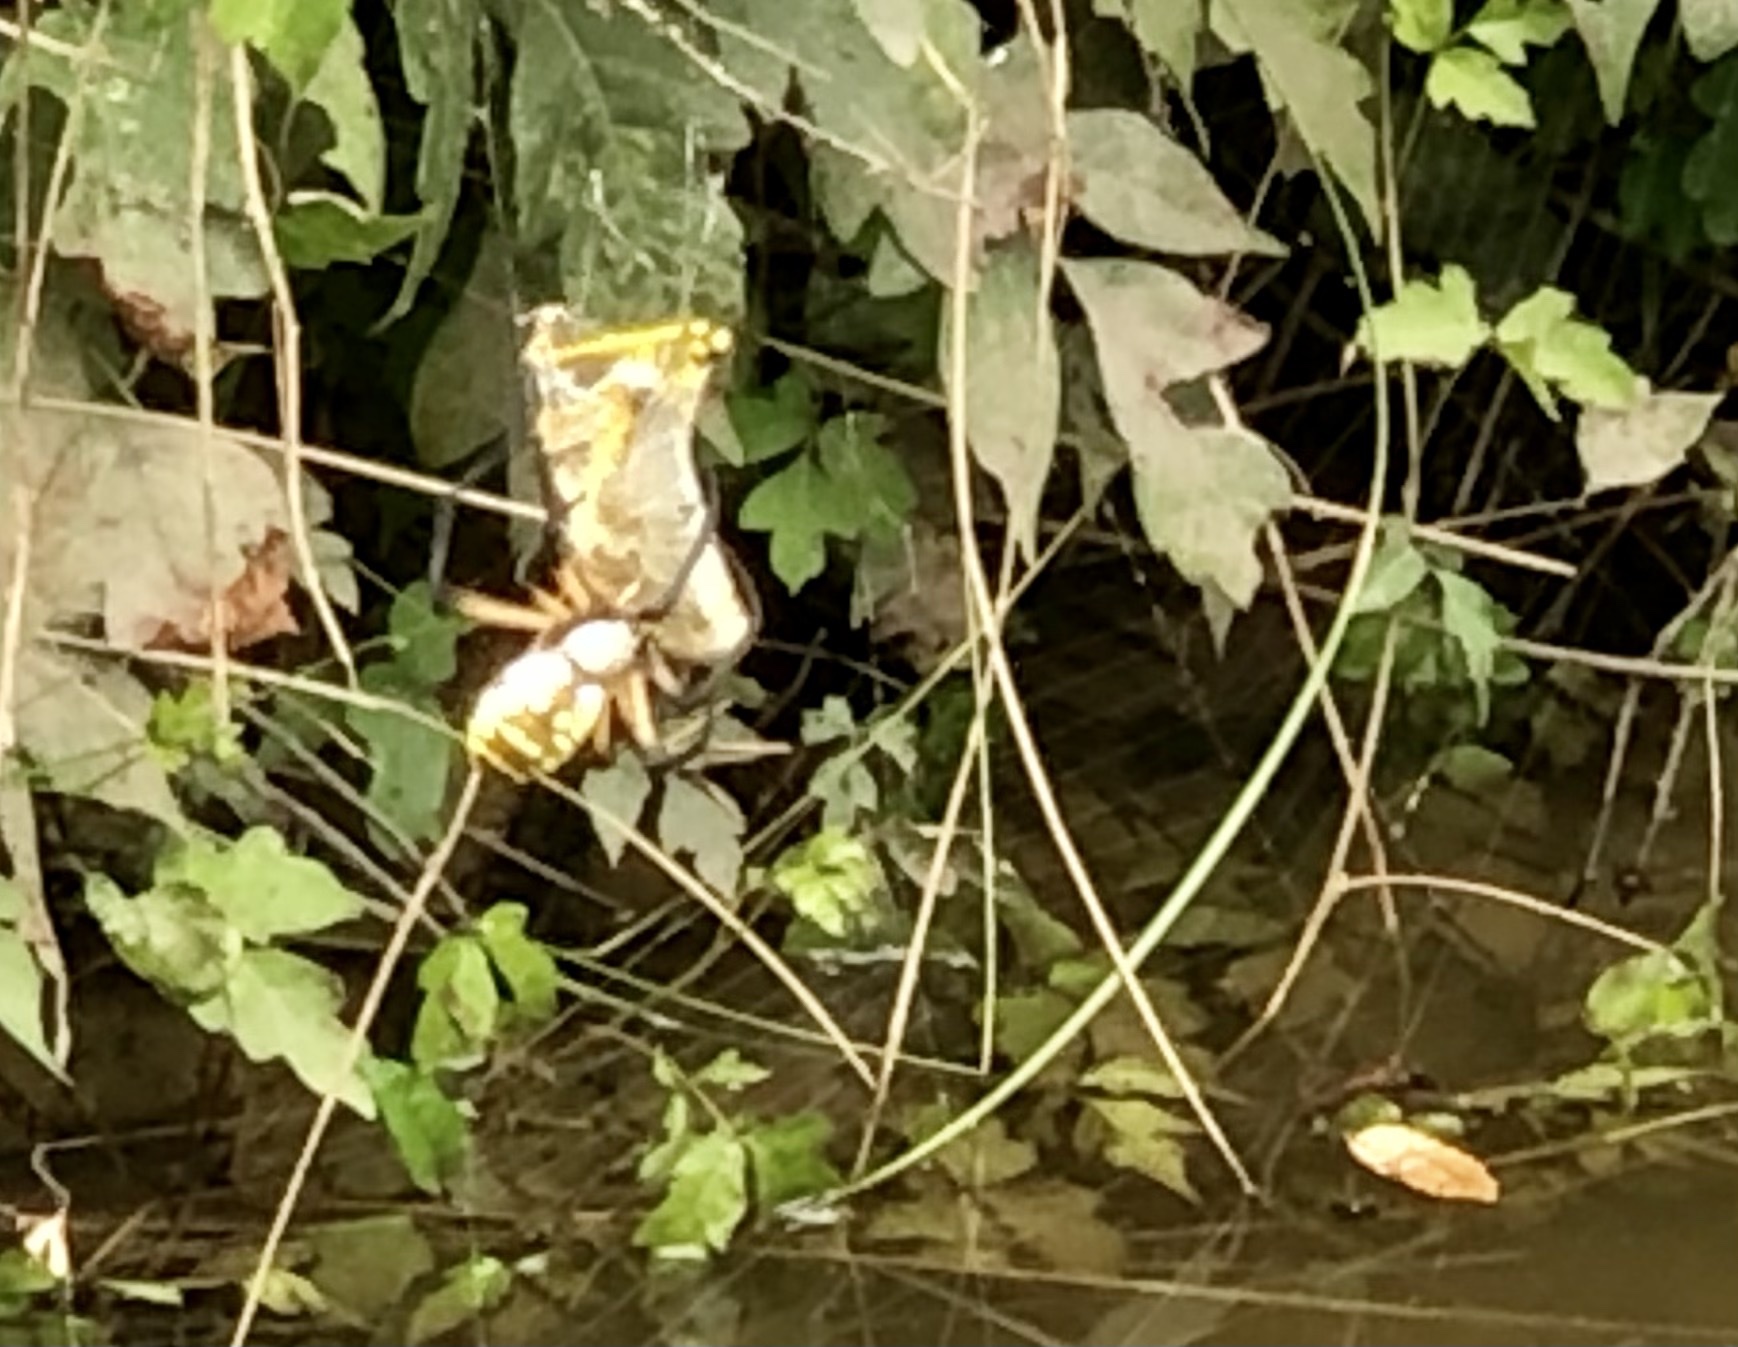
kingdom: Animalia
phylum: Arthropoda
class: Arachnida
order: Araneae
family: Araneidae
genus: Argiope
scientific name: Argiope aurantia
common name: Orb weavers
